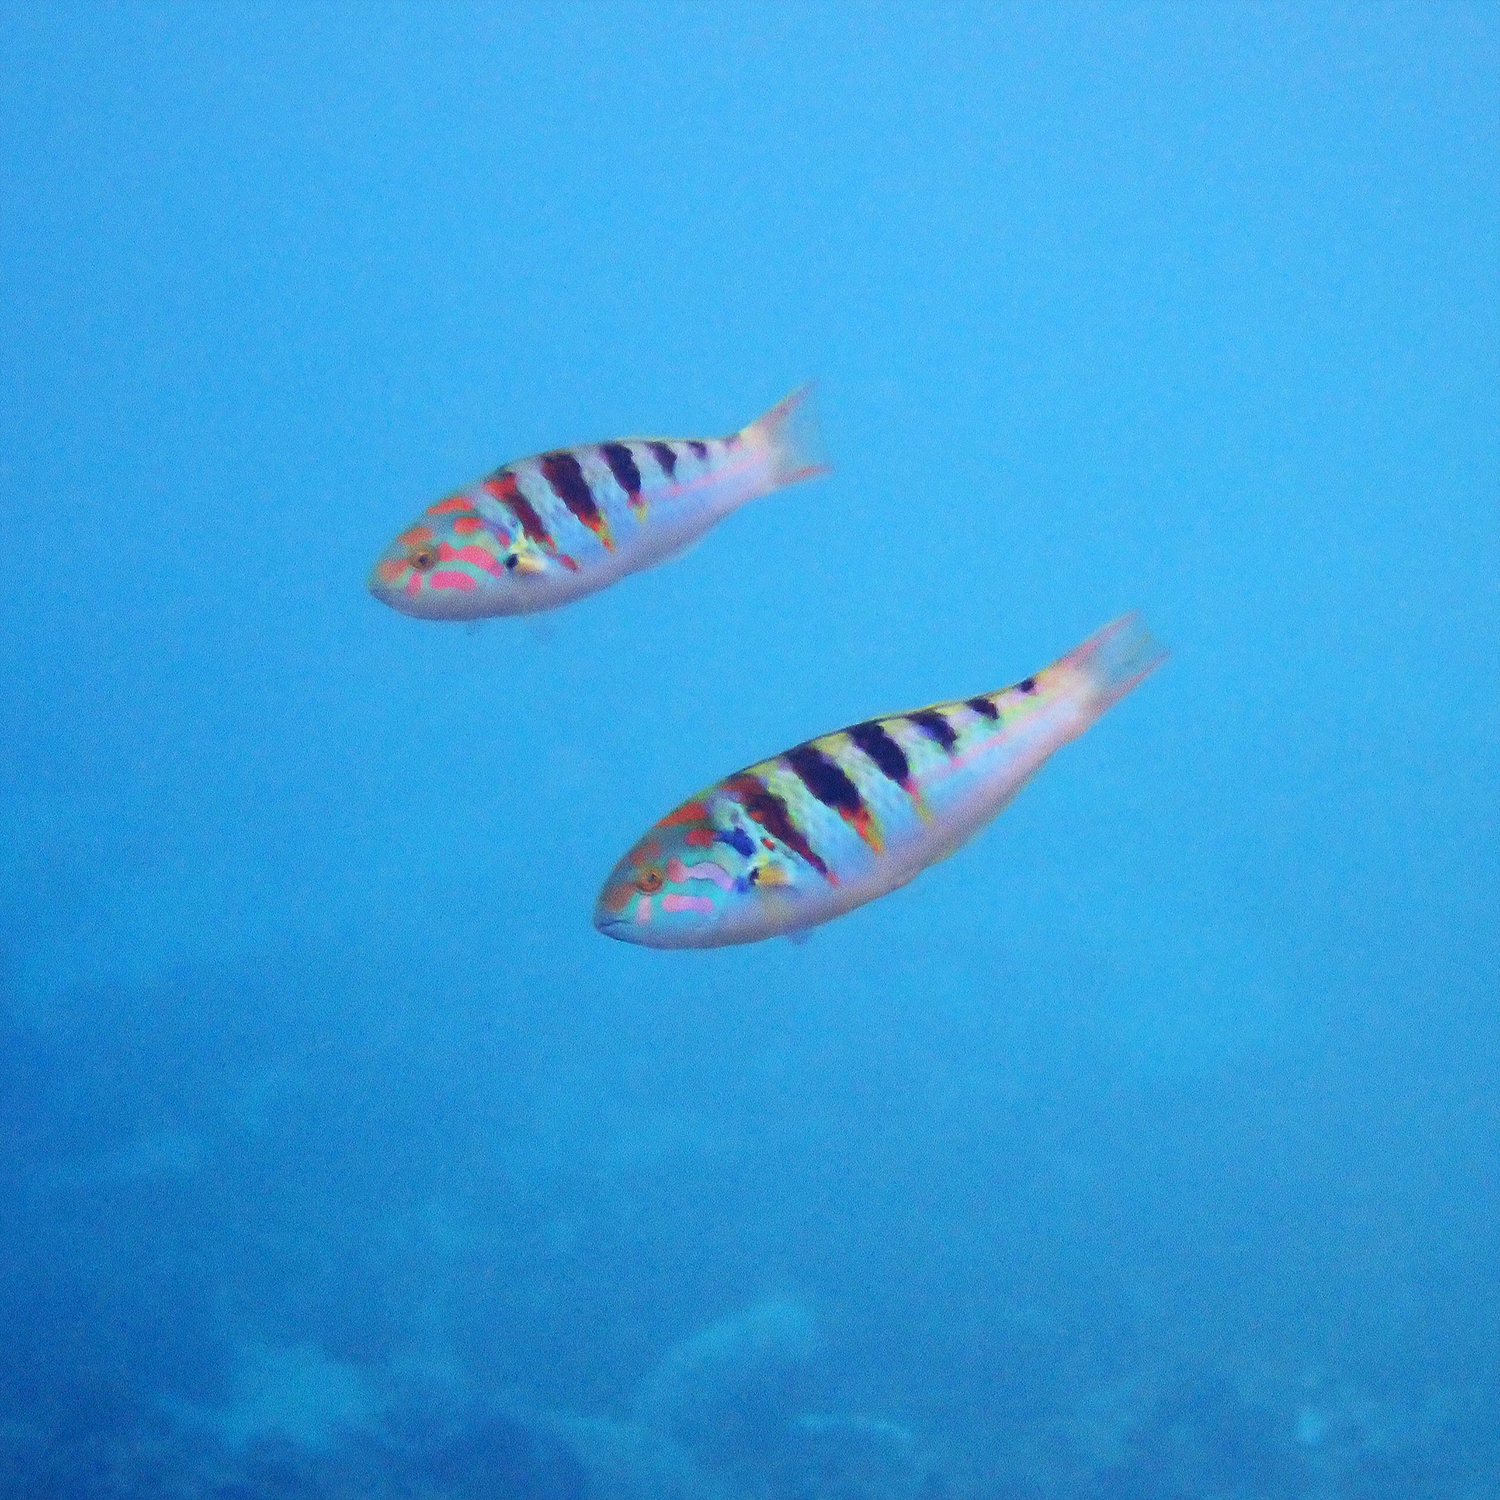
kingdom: Animalia
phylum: Chordata
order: Perciformes
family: Labridae
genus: Thalassoma
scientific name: Thalassoma hardwicke
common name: Sixbar wrasse
